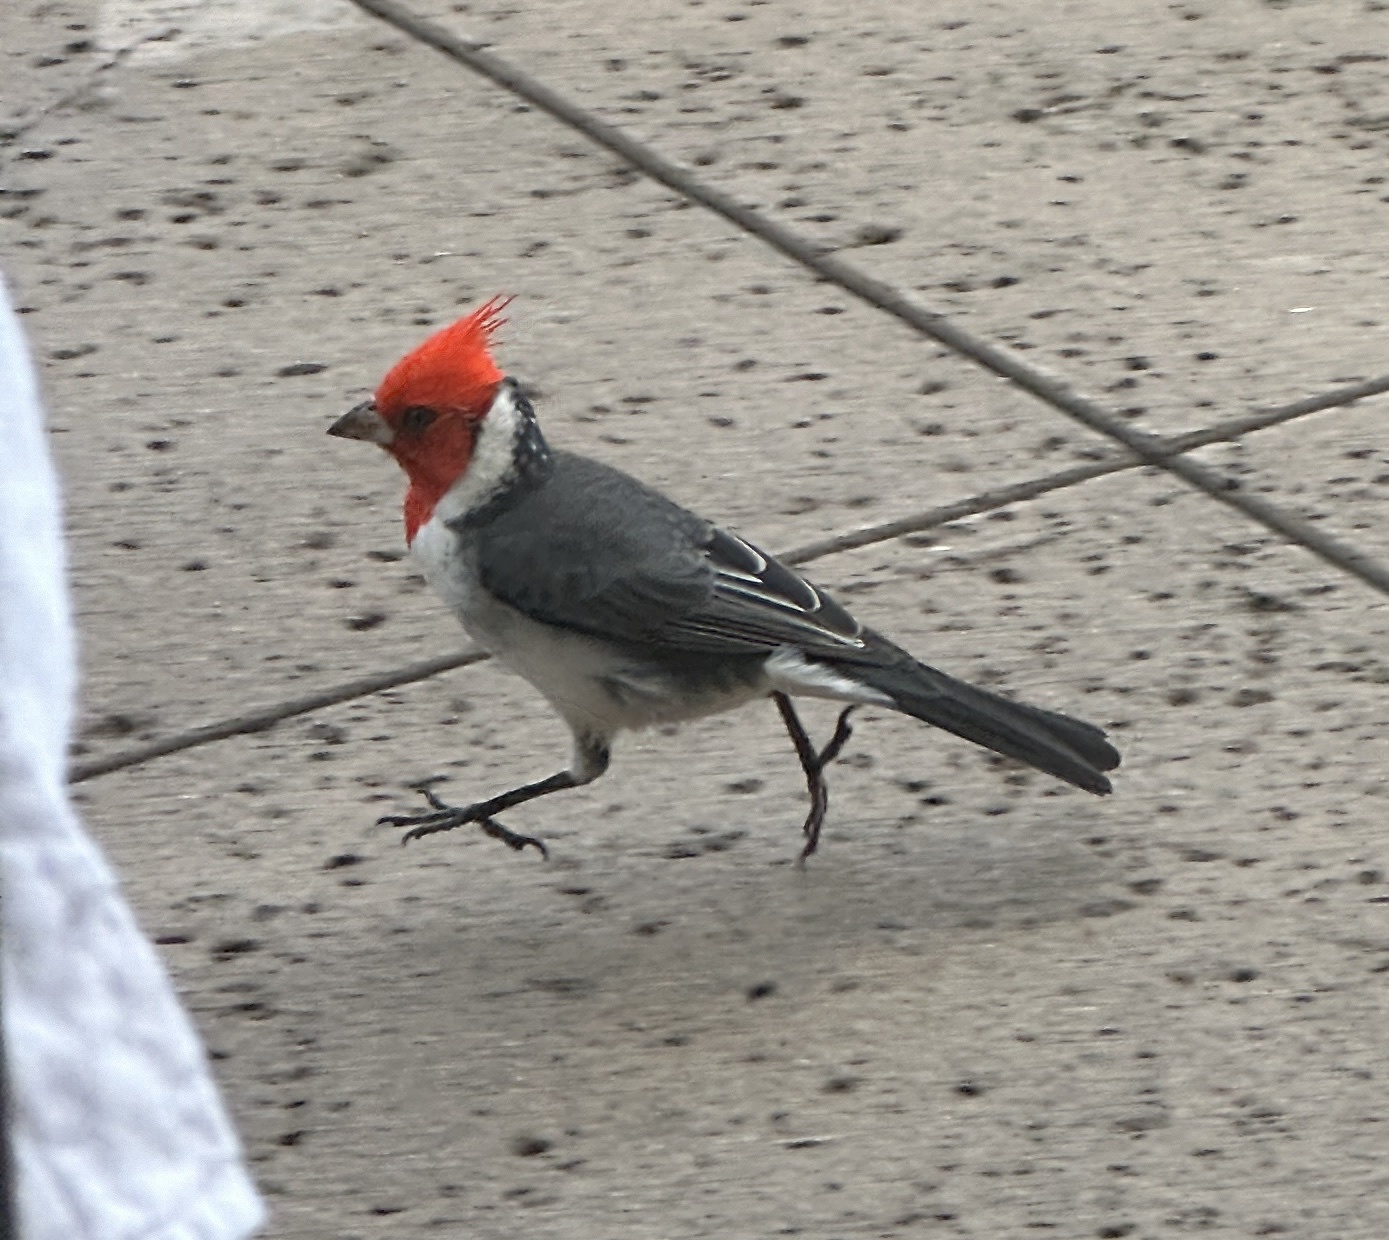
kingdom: Animalia
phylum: Chordata
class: Aves
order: Passeriformes
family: Thraupidae
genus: Paroaria
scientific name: Paroaria coronata
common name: Red-crested cardinal
